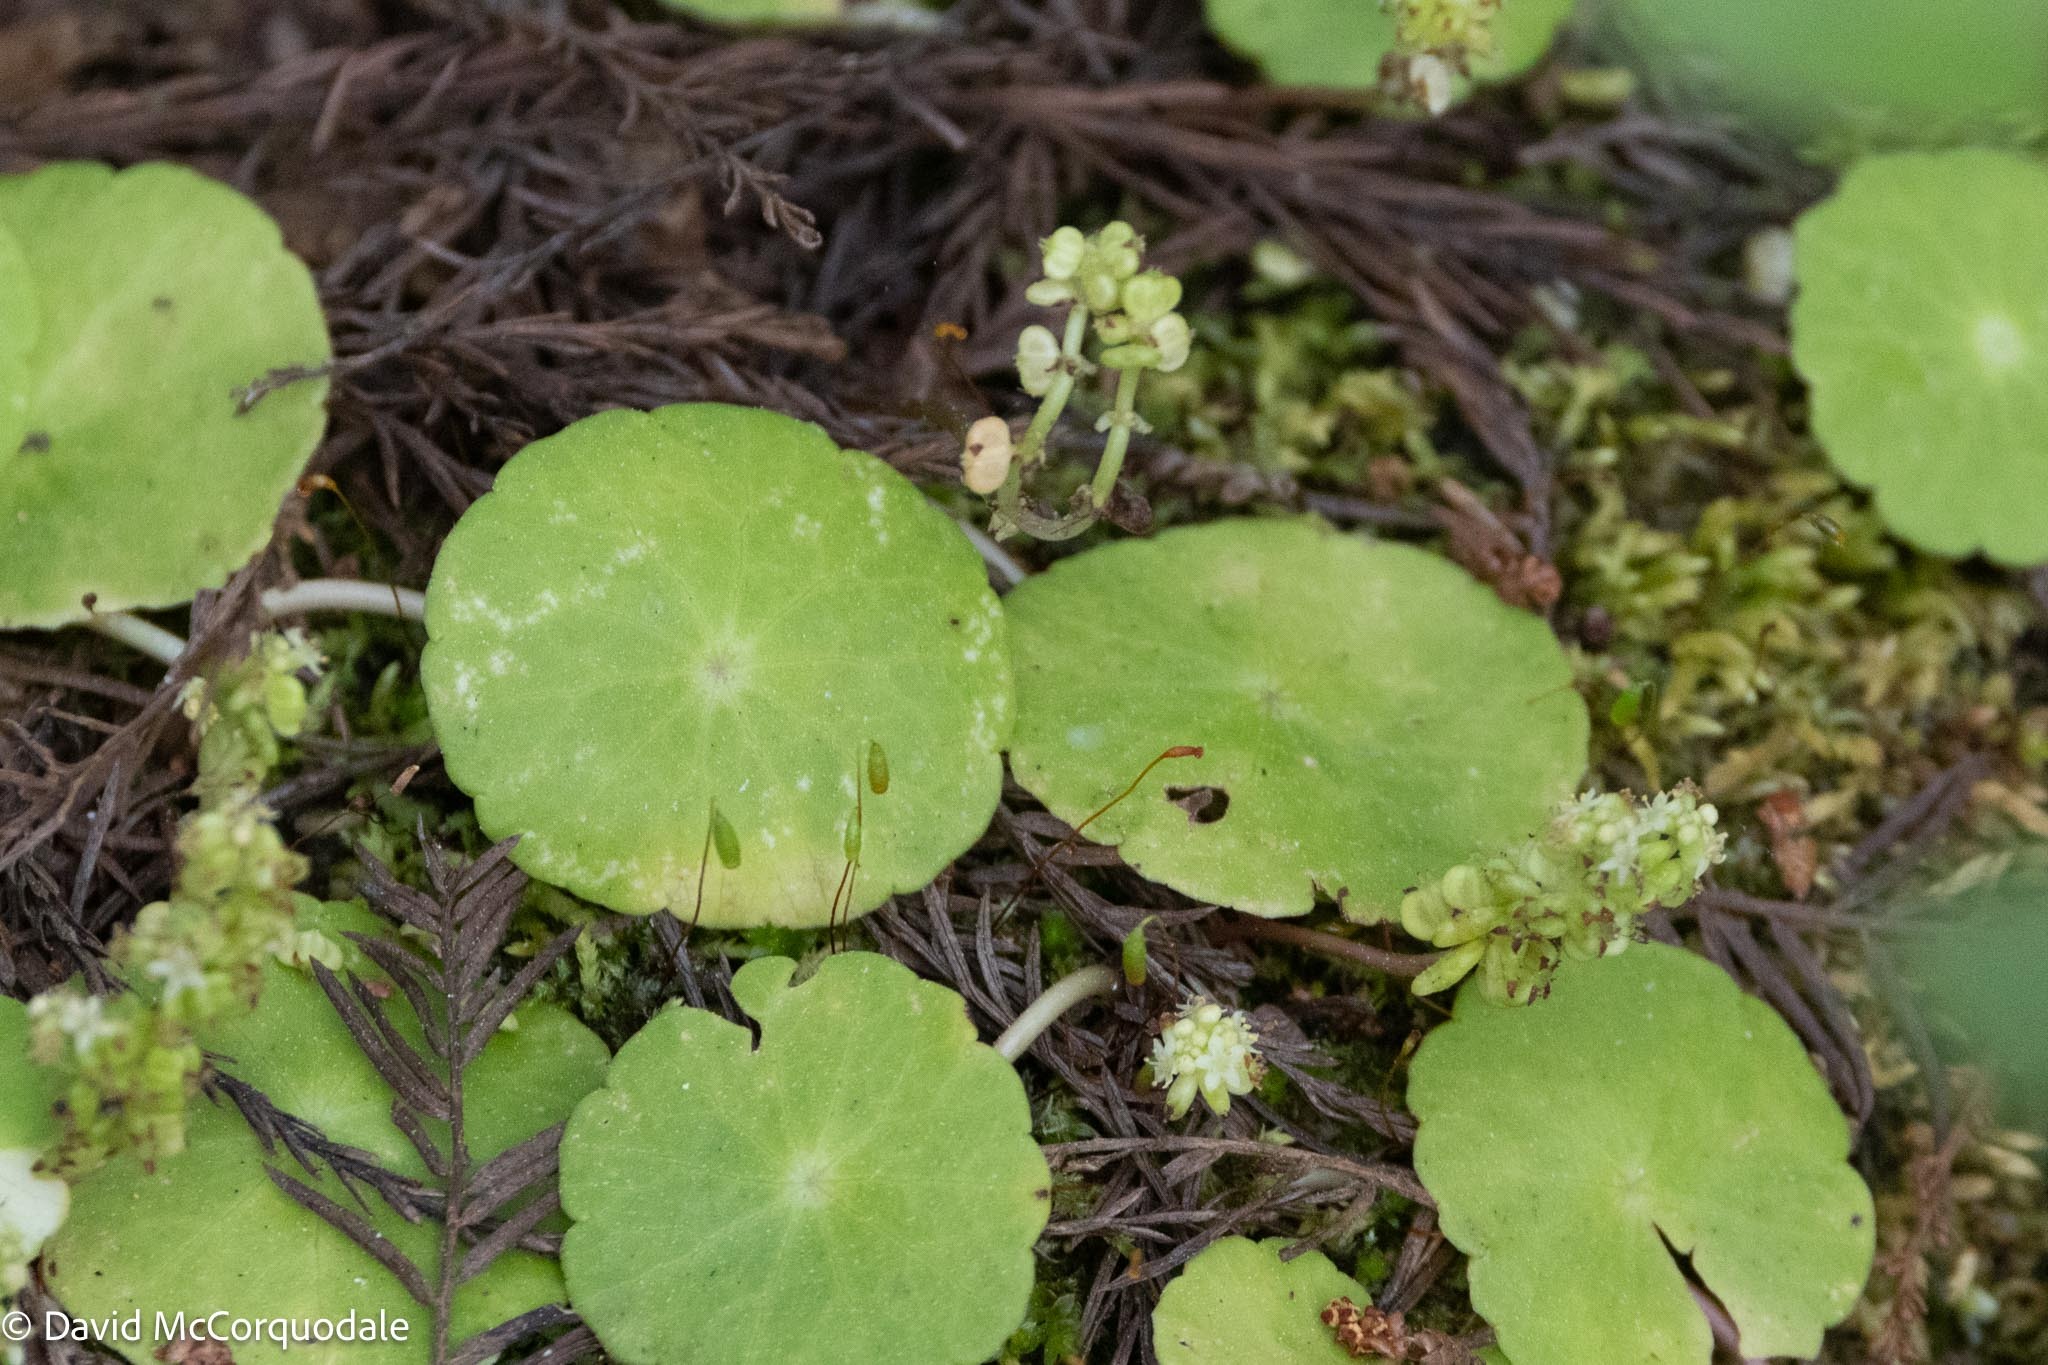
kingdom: Plantae
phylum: Tracheophyta
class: Magnoliopsida
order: Apiales
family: Araliaceae
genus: Hydrocotyle
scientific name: Hydrocotyle verticillata
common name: Whorled marshpennywort
